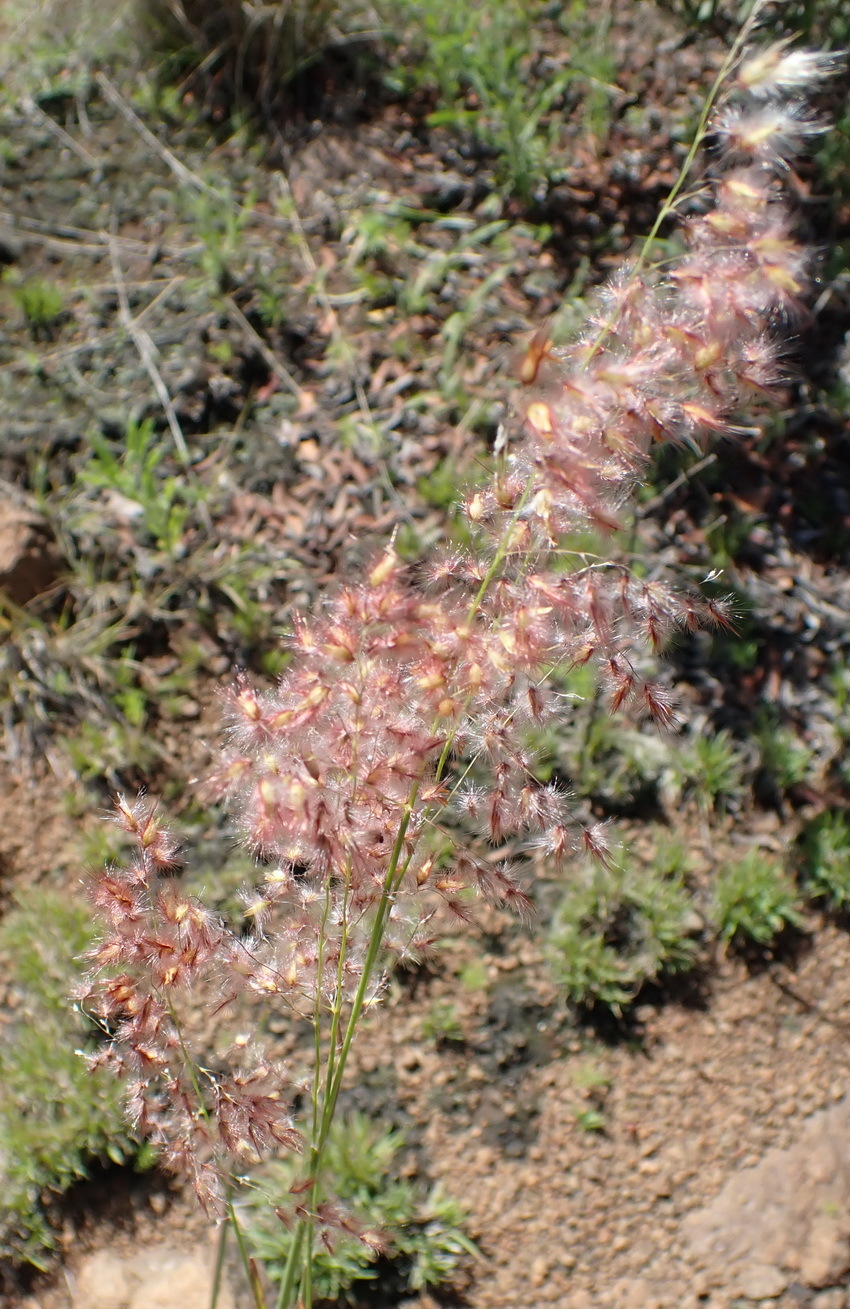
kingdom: Plantae
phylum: Tracheophyta
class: Liliopsida
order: Poales
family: Poaceae
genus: Melinis
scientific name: Melinis repens
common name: Rose natal grass
